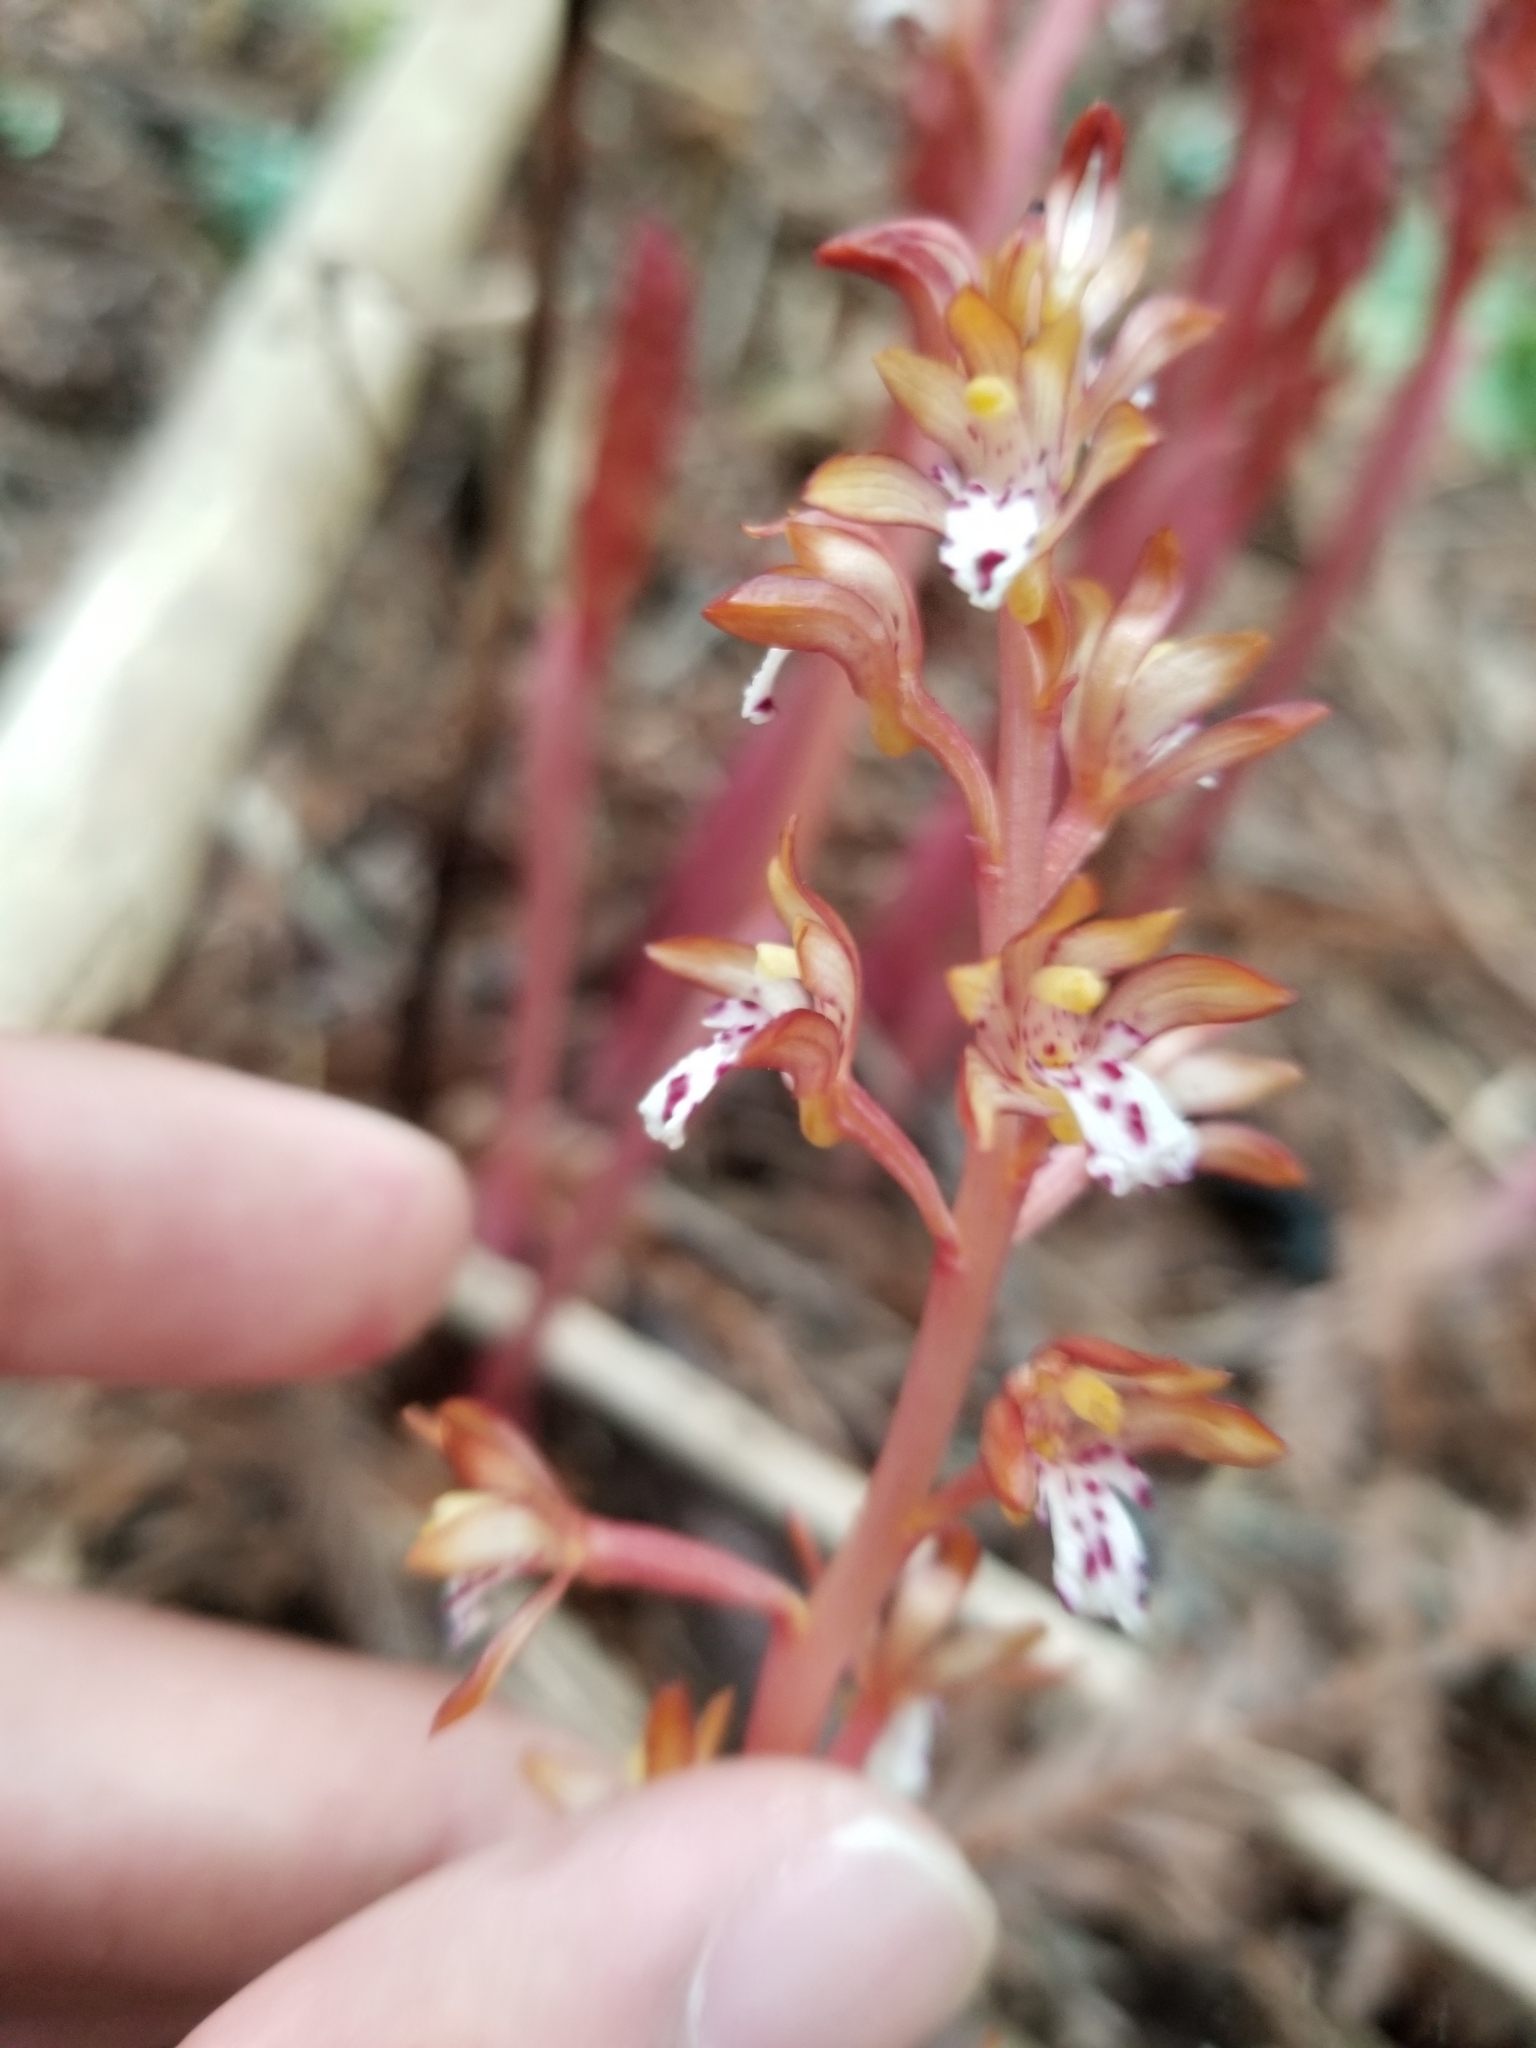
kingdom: Plantae
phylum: Tracheophyta
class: Liliopsida
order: Asparagales
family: Orchidaceae
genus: Corallorhiza
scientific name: Corallorhiza maculata
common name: Spotted coralroot
